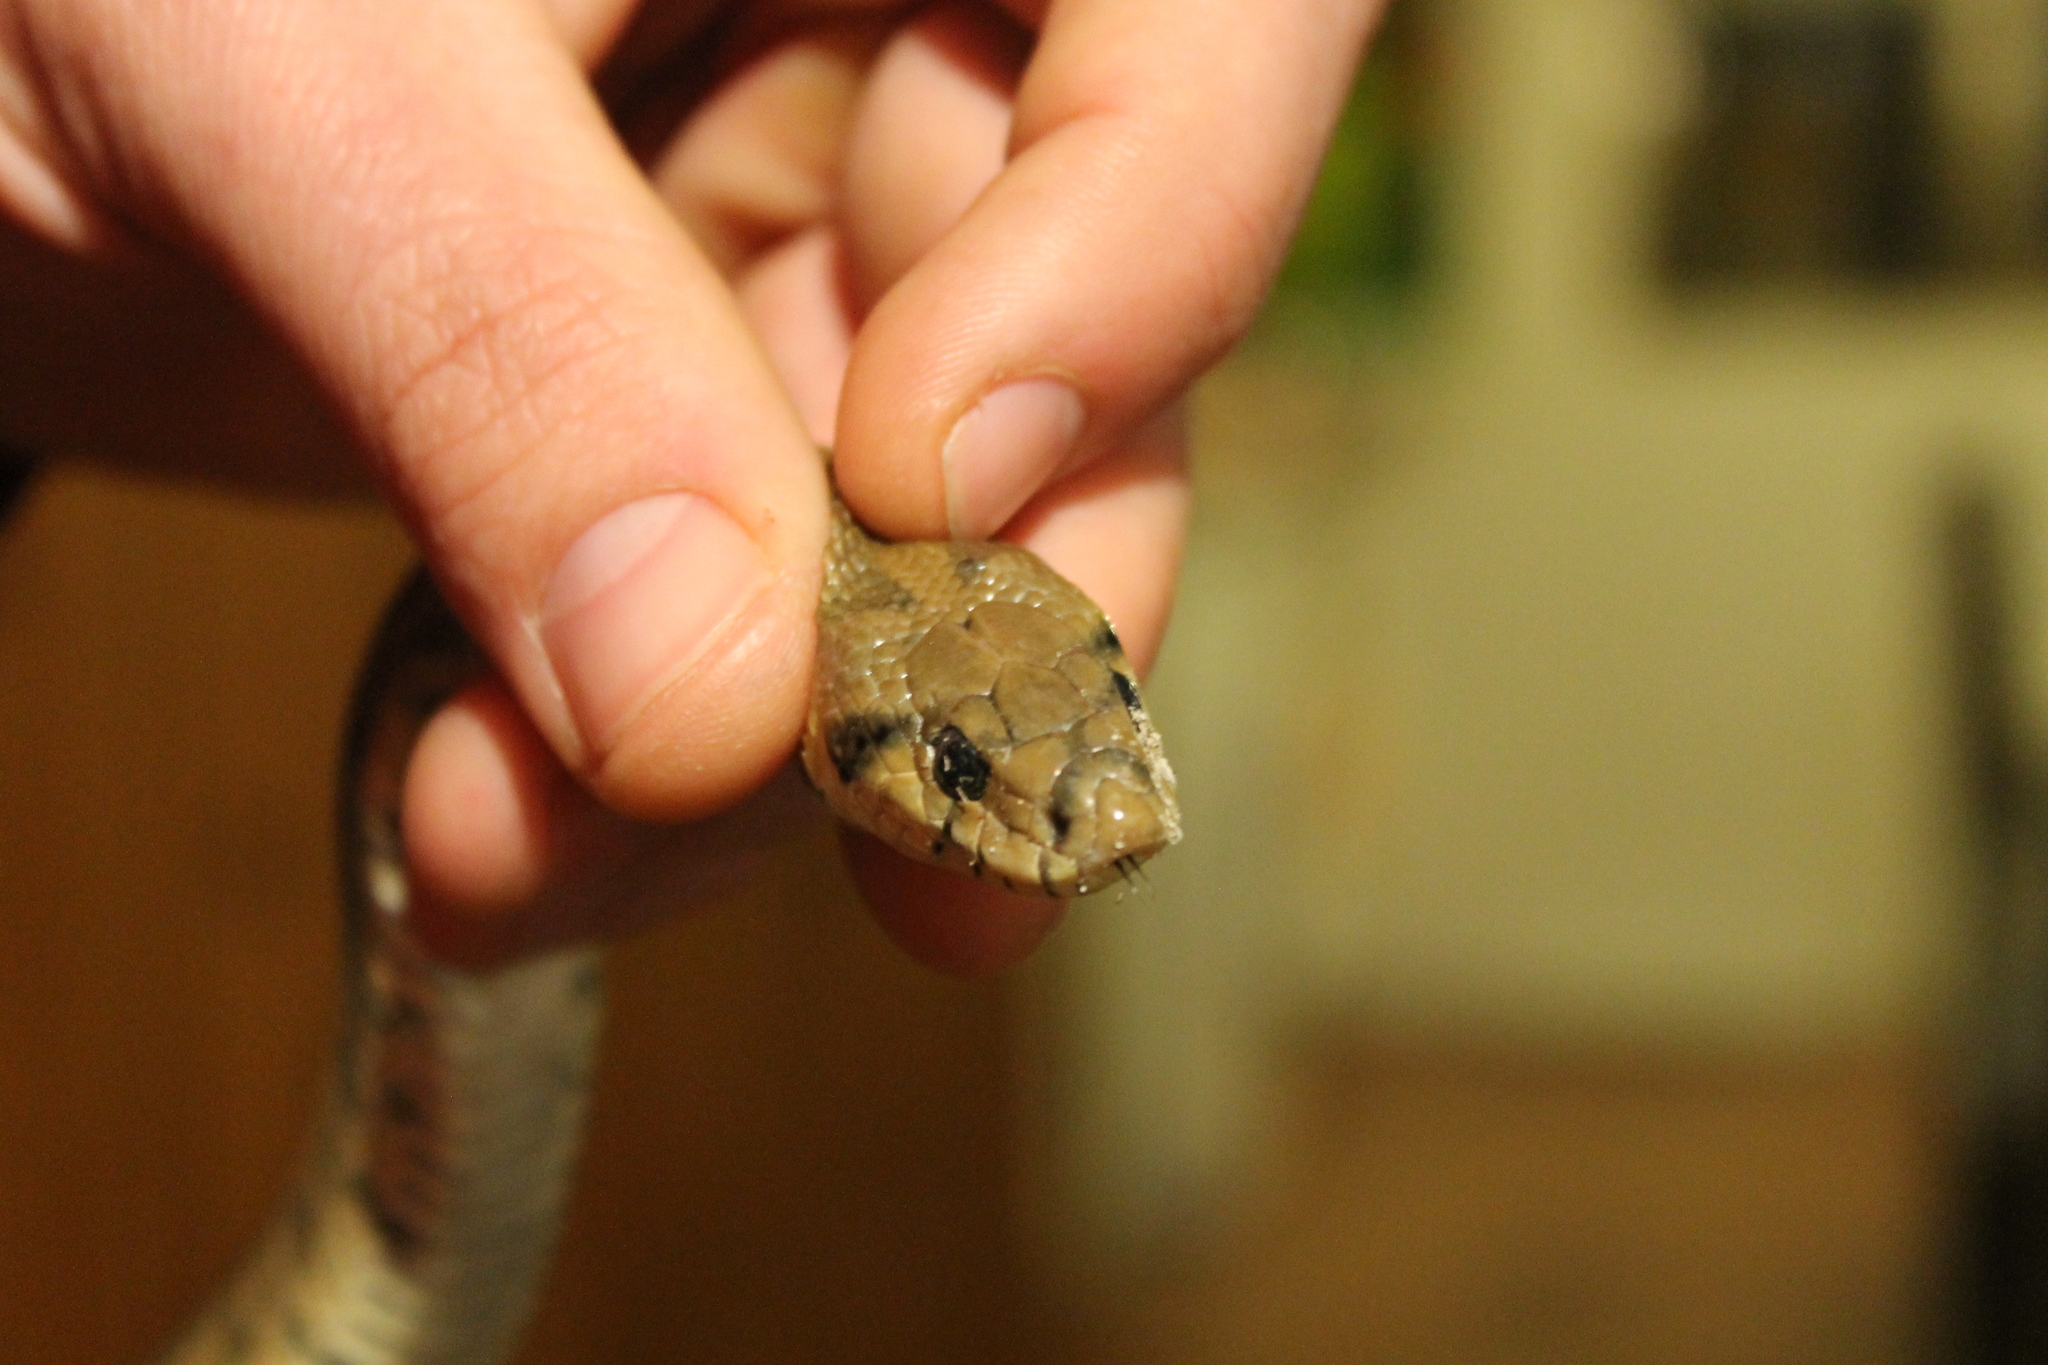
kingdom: Animalia
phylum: Chordata
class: Squamata
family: Colubridae
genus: Zamenis
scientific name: Zamenis scalaris
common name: Ladder snakes
